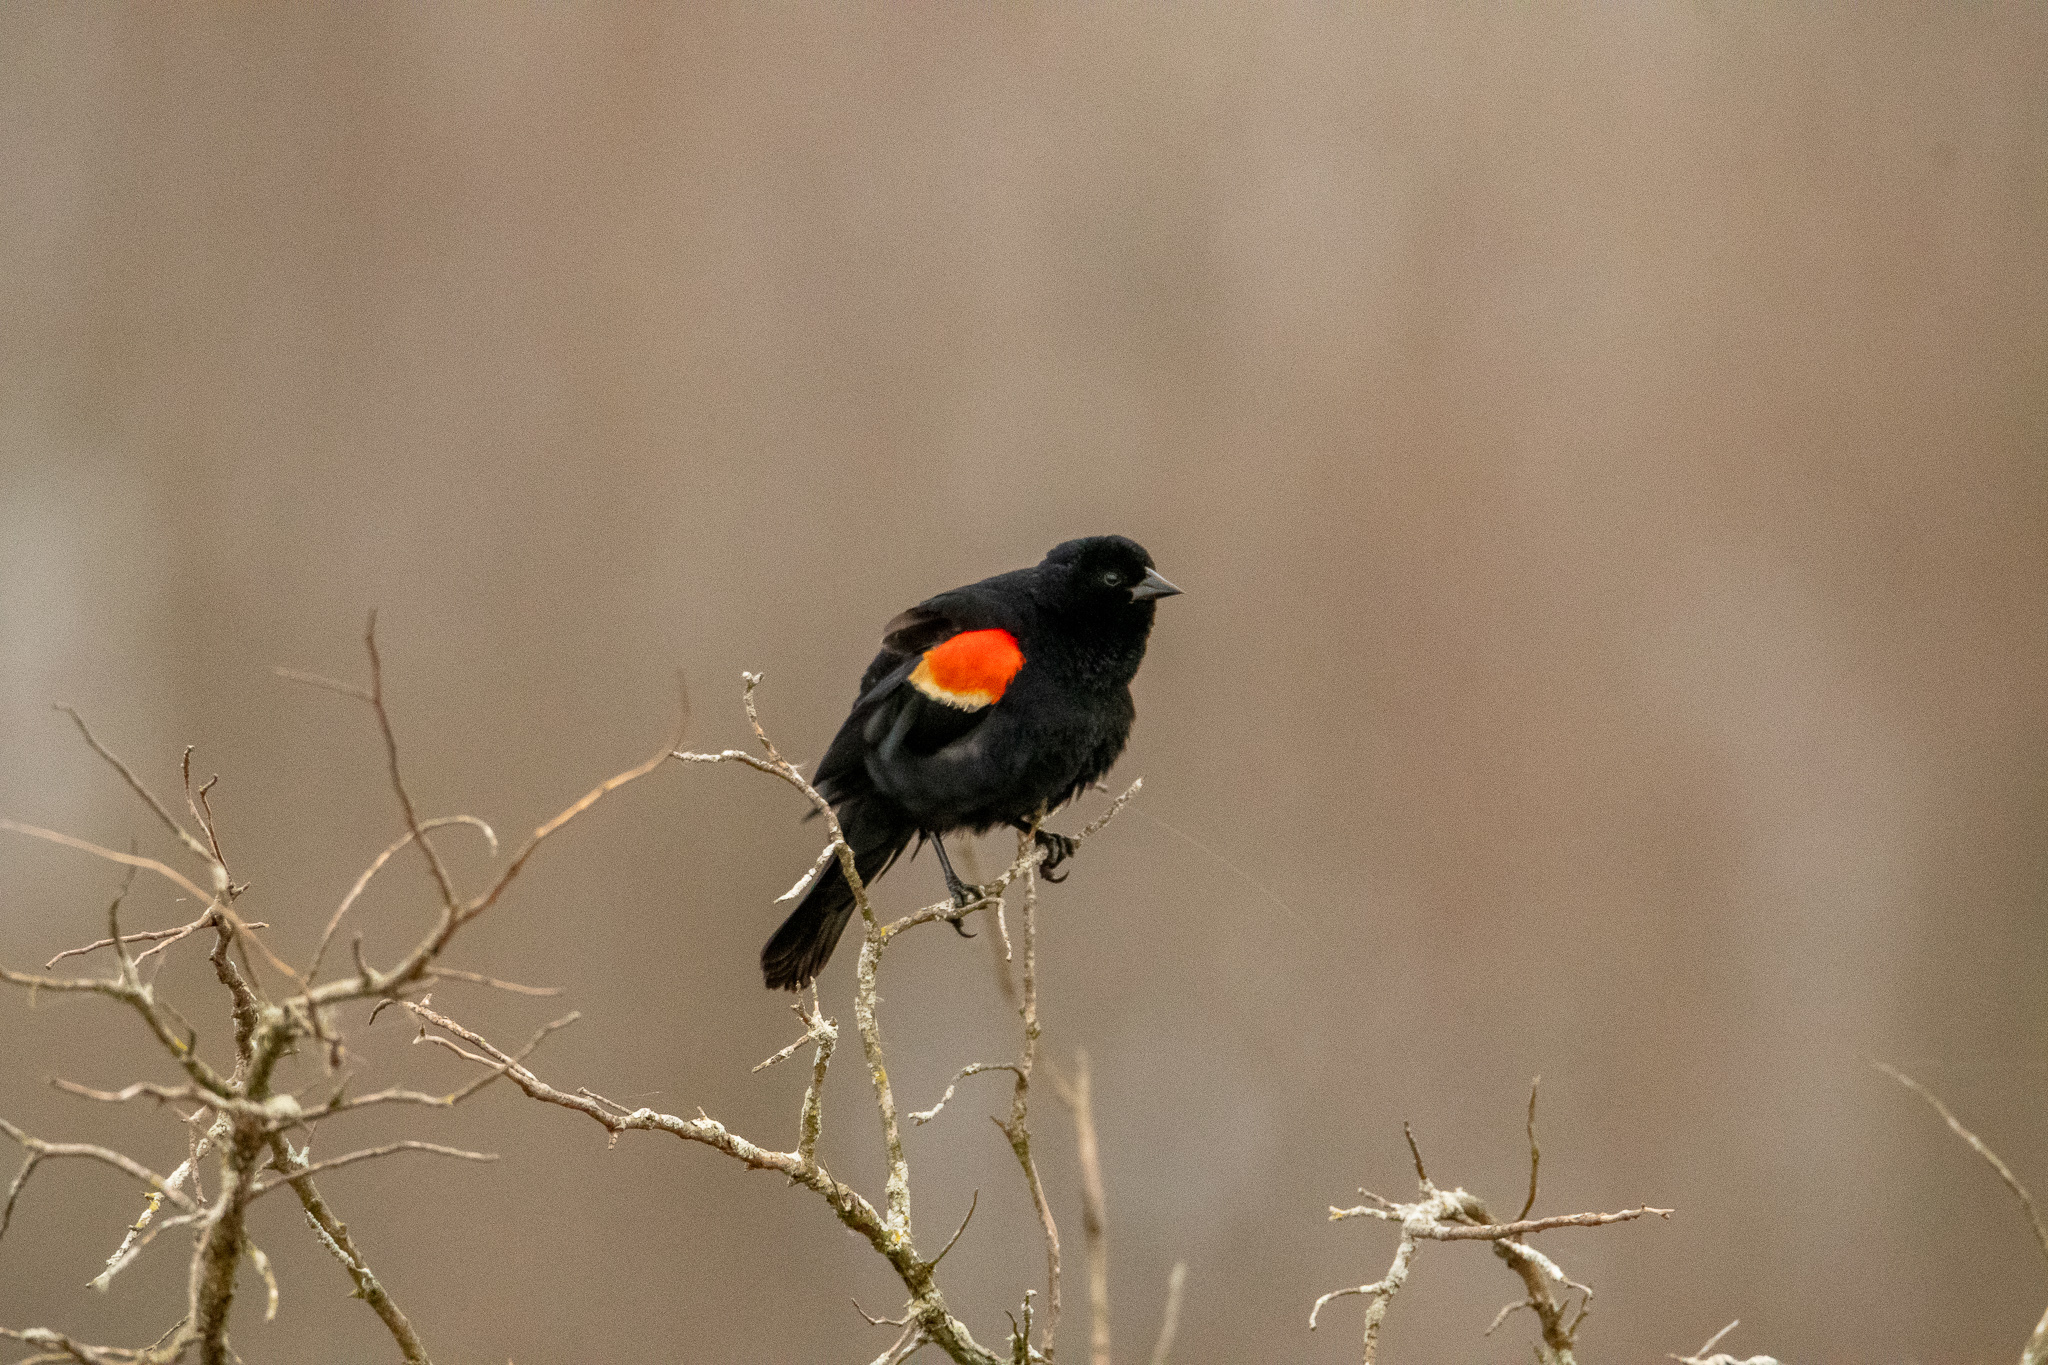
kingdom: Animalia
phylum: Chordata
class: Aves
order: Passeriformes
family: Icteridae
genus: Agelaius
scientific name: Agelaius phoeniceus
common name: Red-winged blackbird
